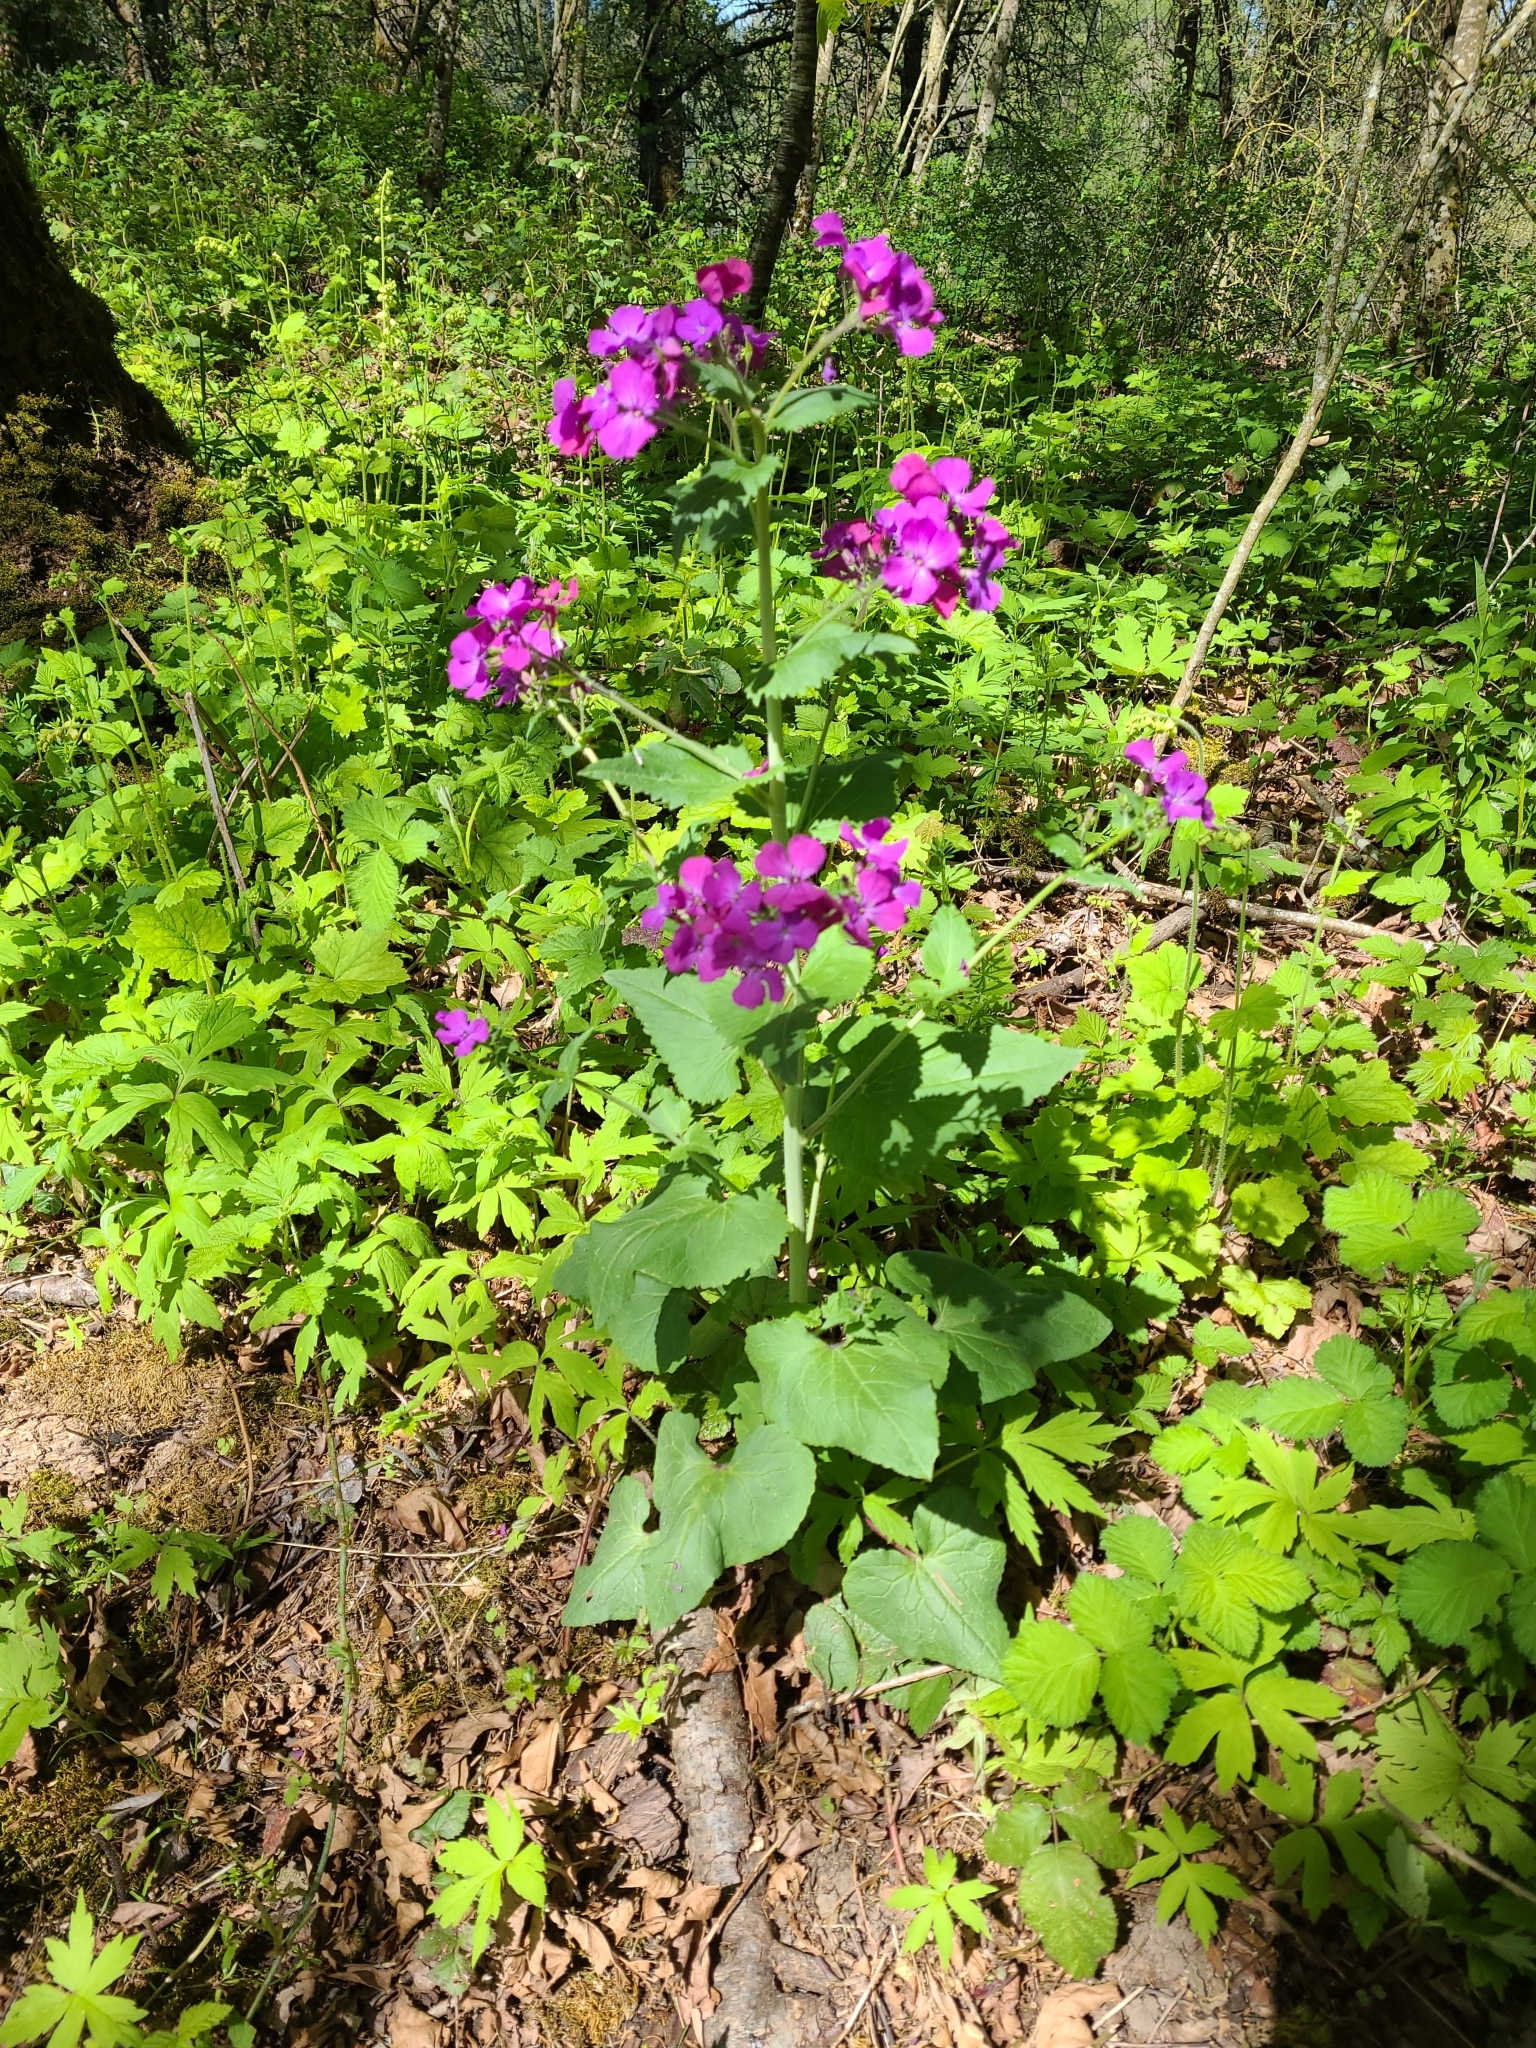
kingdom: Plantae
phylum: Tracheophyta
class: Magnoliopsida
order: Brassicales
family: Brassicaceae
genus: Lunaria
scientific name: Lunaria annua
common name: Honesty
